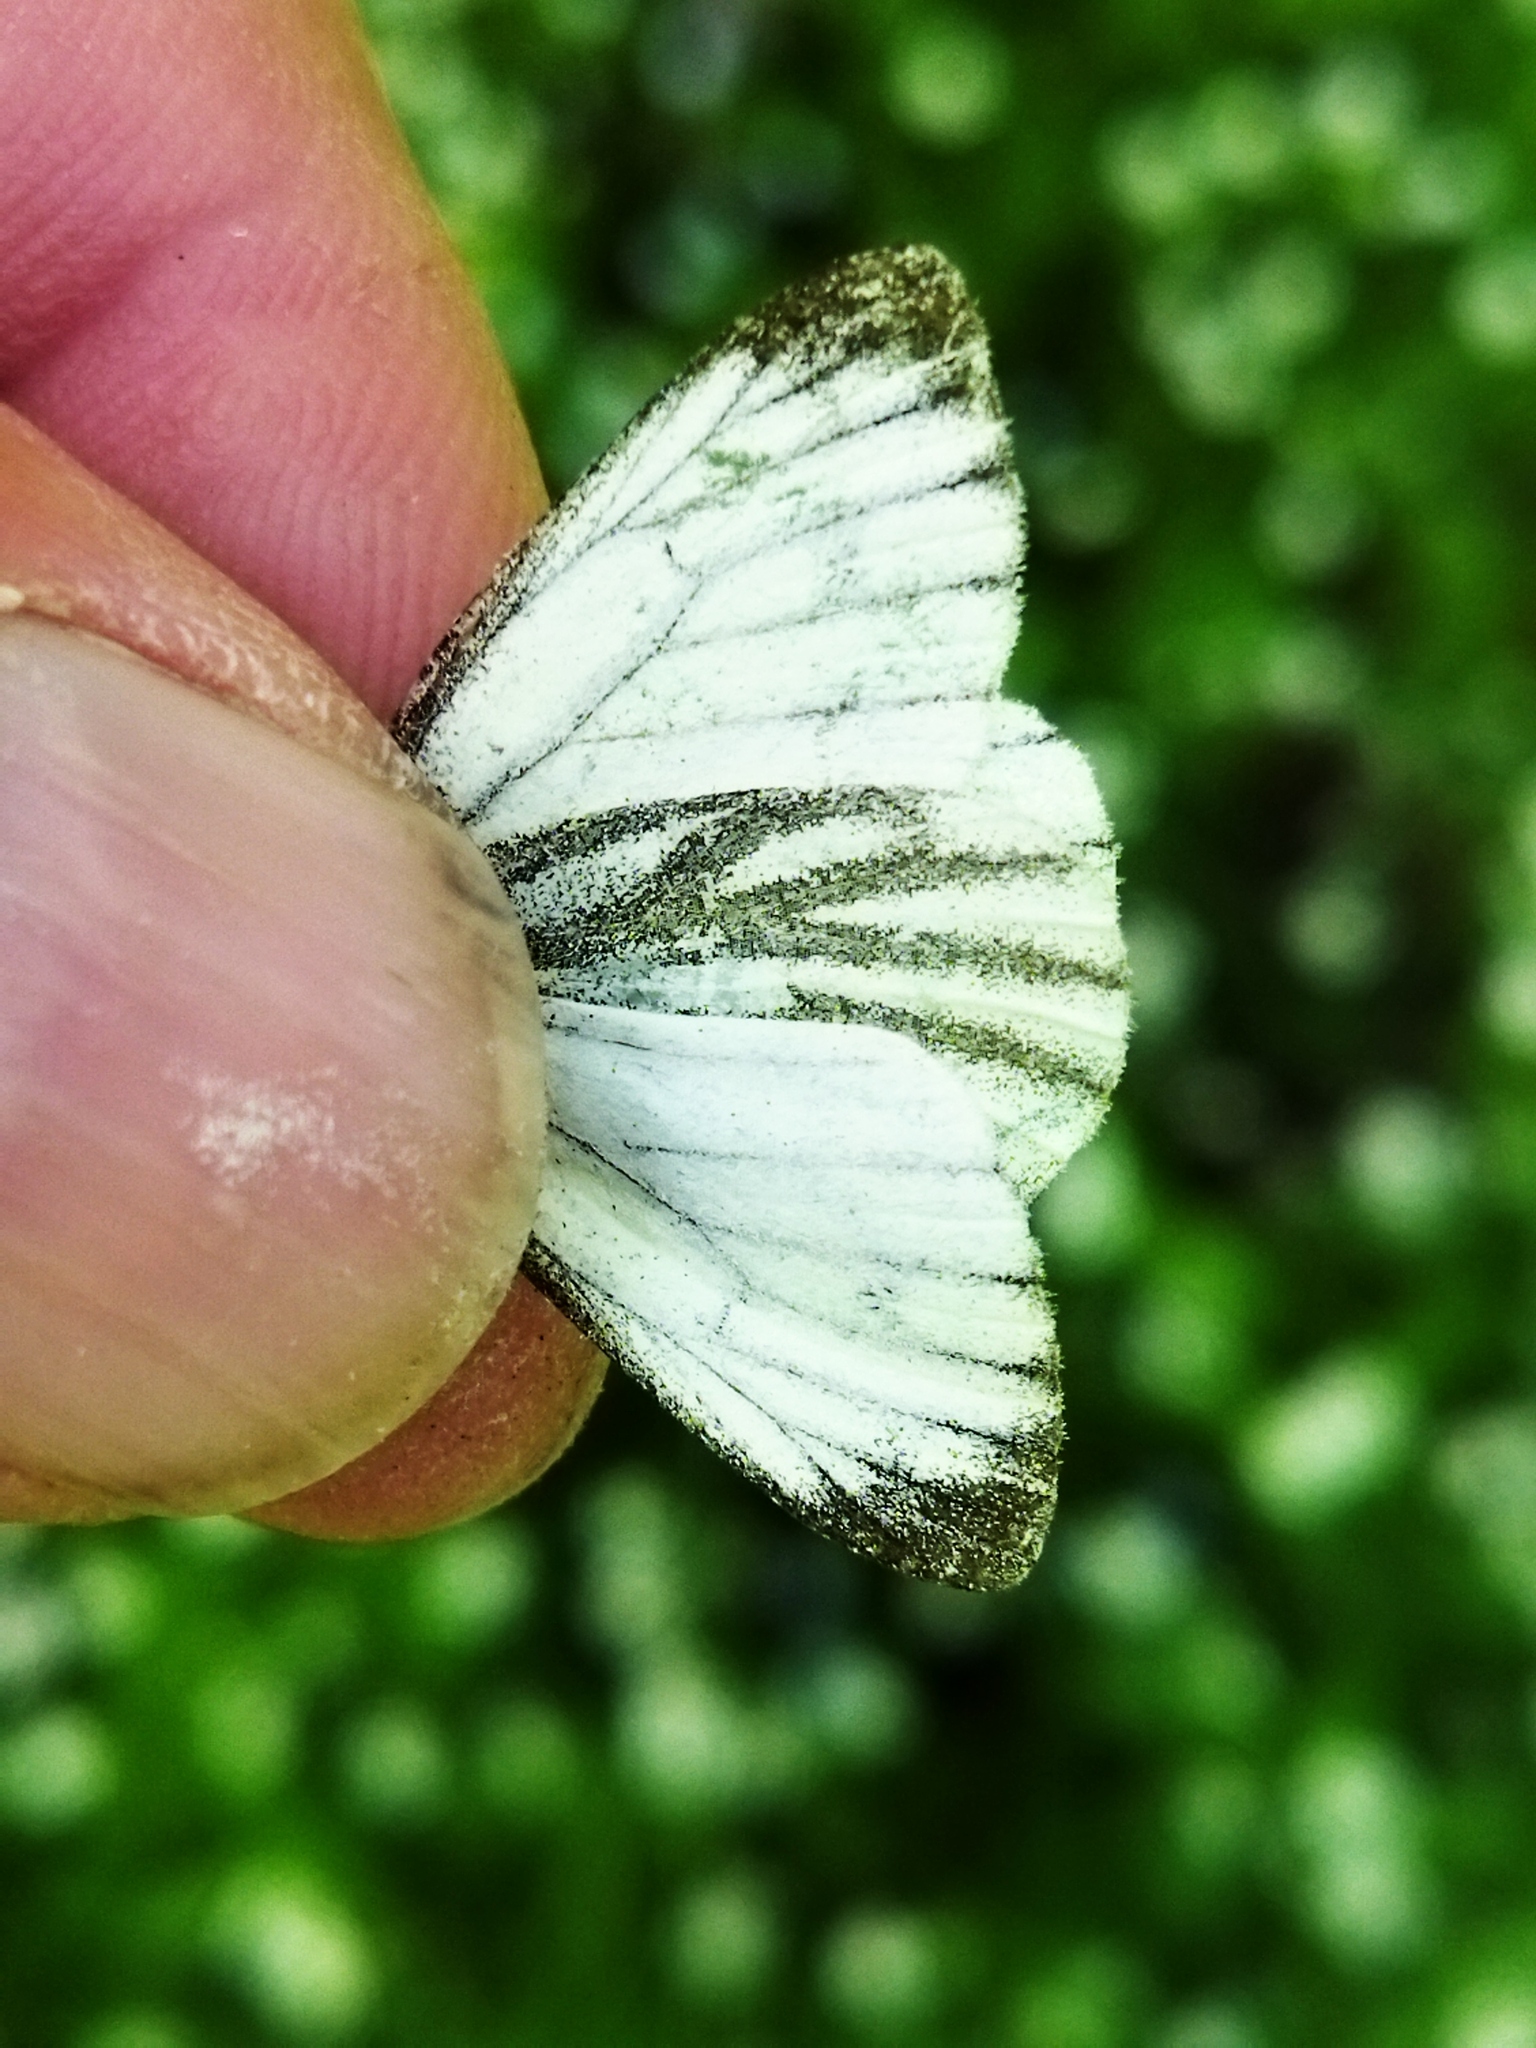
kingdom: Animalia
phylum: Arthropoda
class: Insecta
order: Lepidoptera
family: Pieridae
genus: Pieris
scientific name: Pieris napi
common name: Green-veined white
